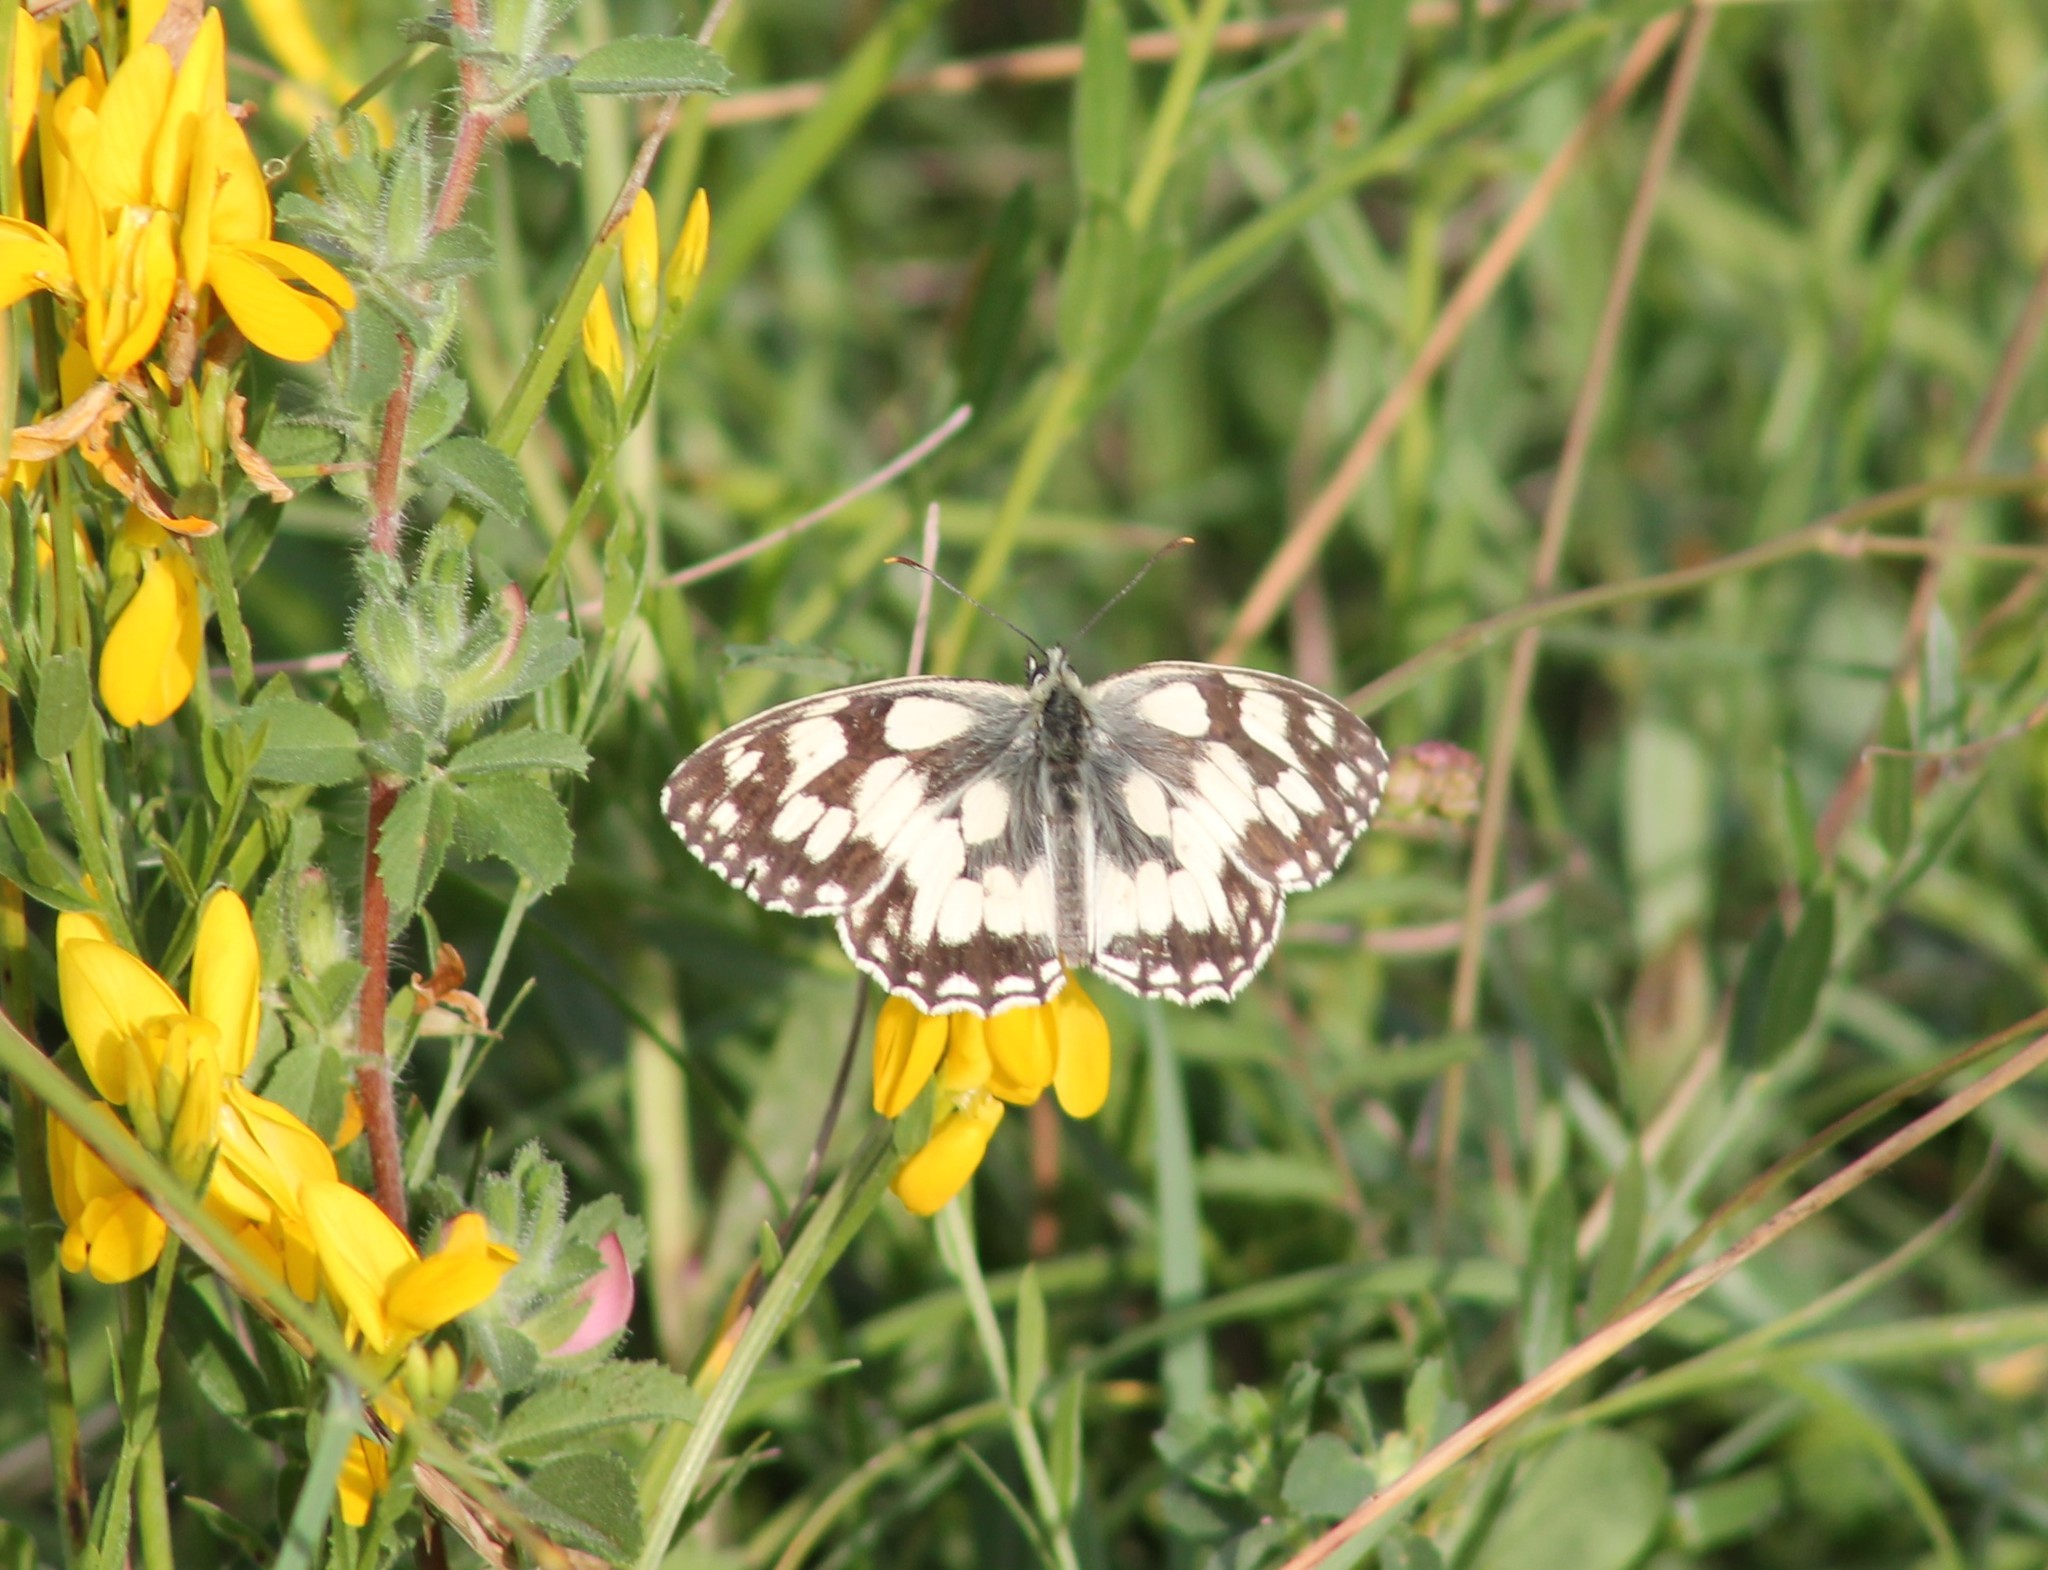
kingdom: Animalia
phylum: Arthropoda
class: Insecta
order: Lepidoptera
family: Nymphalidae
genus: Melanargia
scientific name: Melanargia galathea
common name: Marbled white
